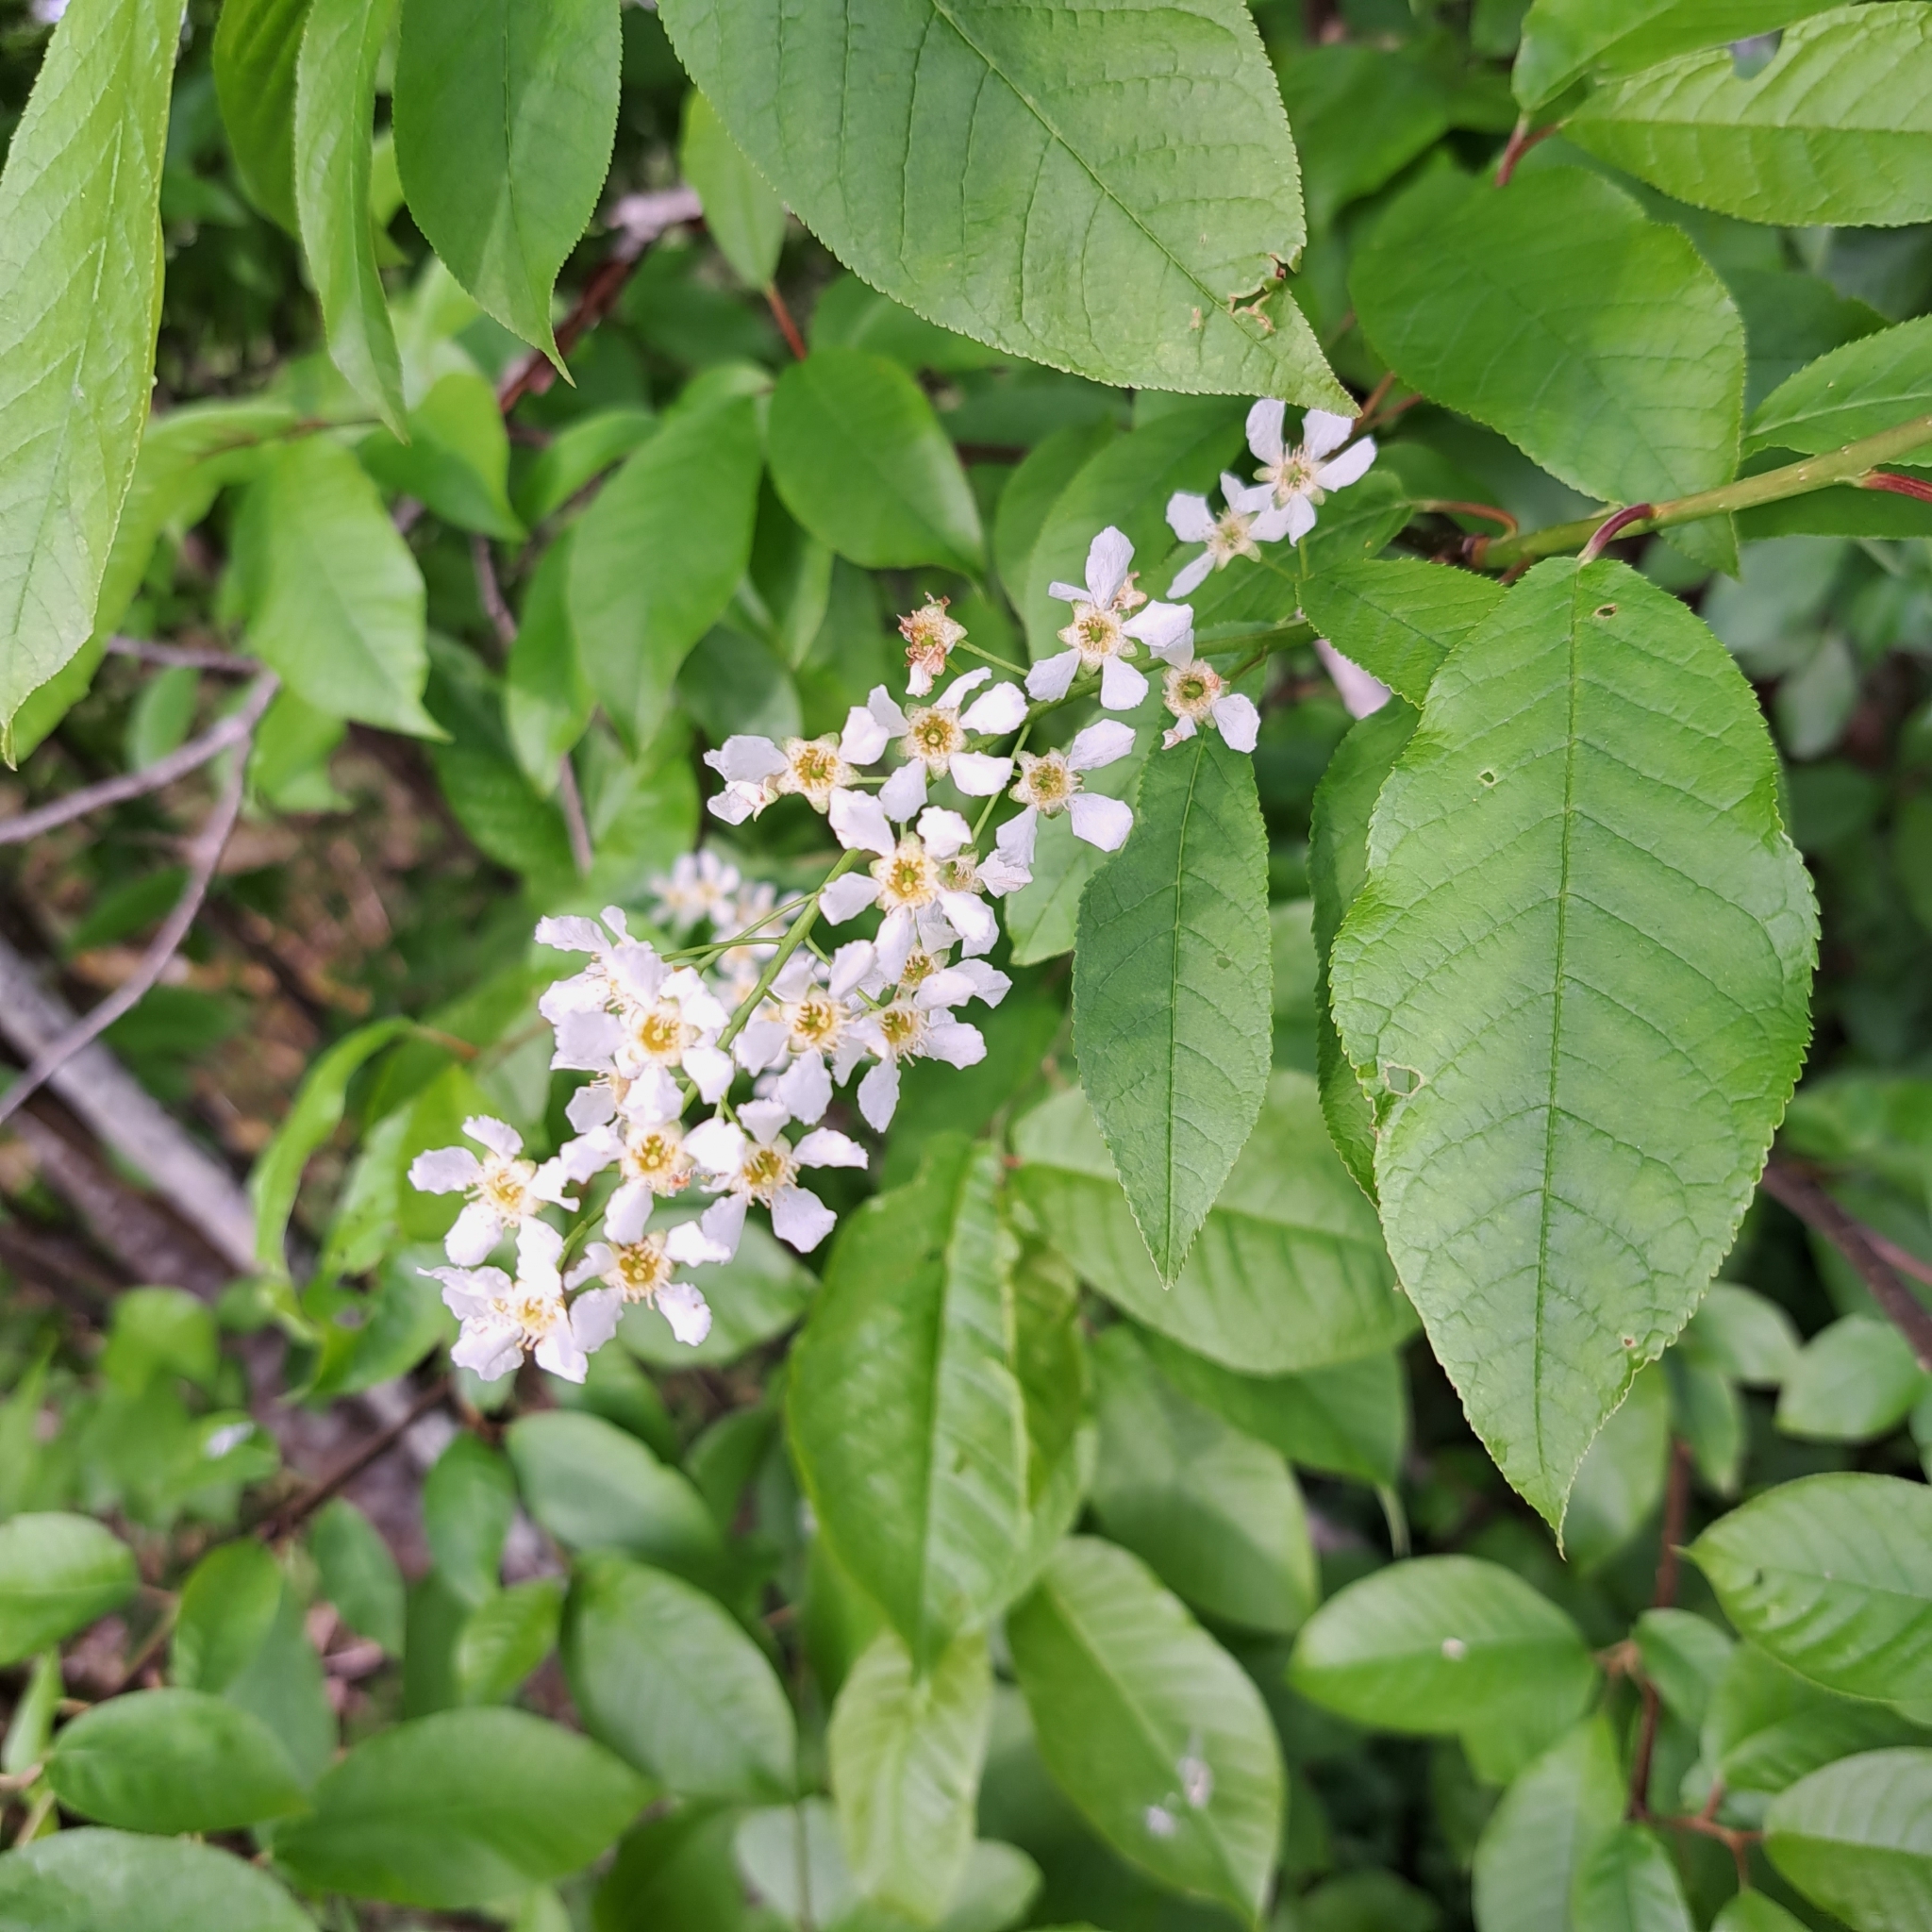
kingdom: Plantae
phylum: Tracheophyta
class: Magnoliopsida
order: Rosales
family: Rosaceae
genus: Prunus
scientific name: Prunus padus
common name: Bird cherry
